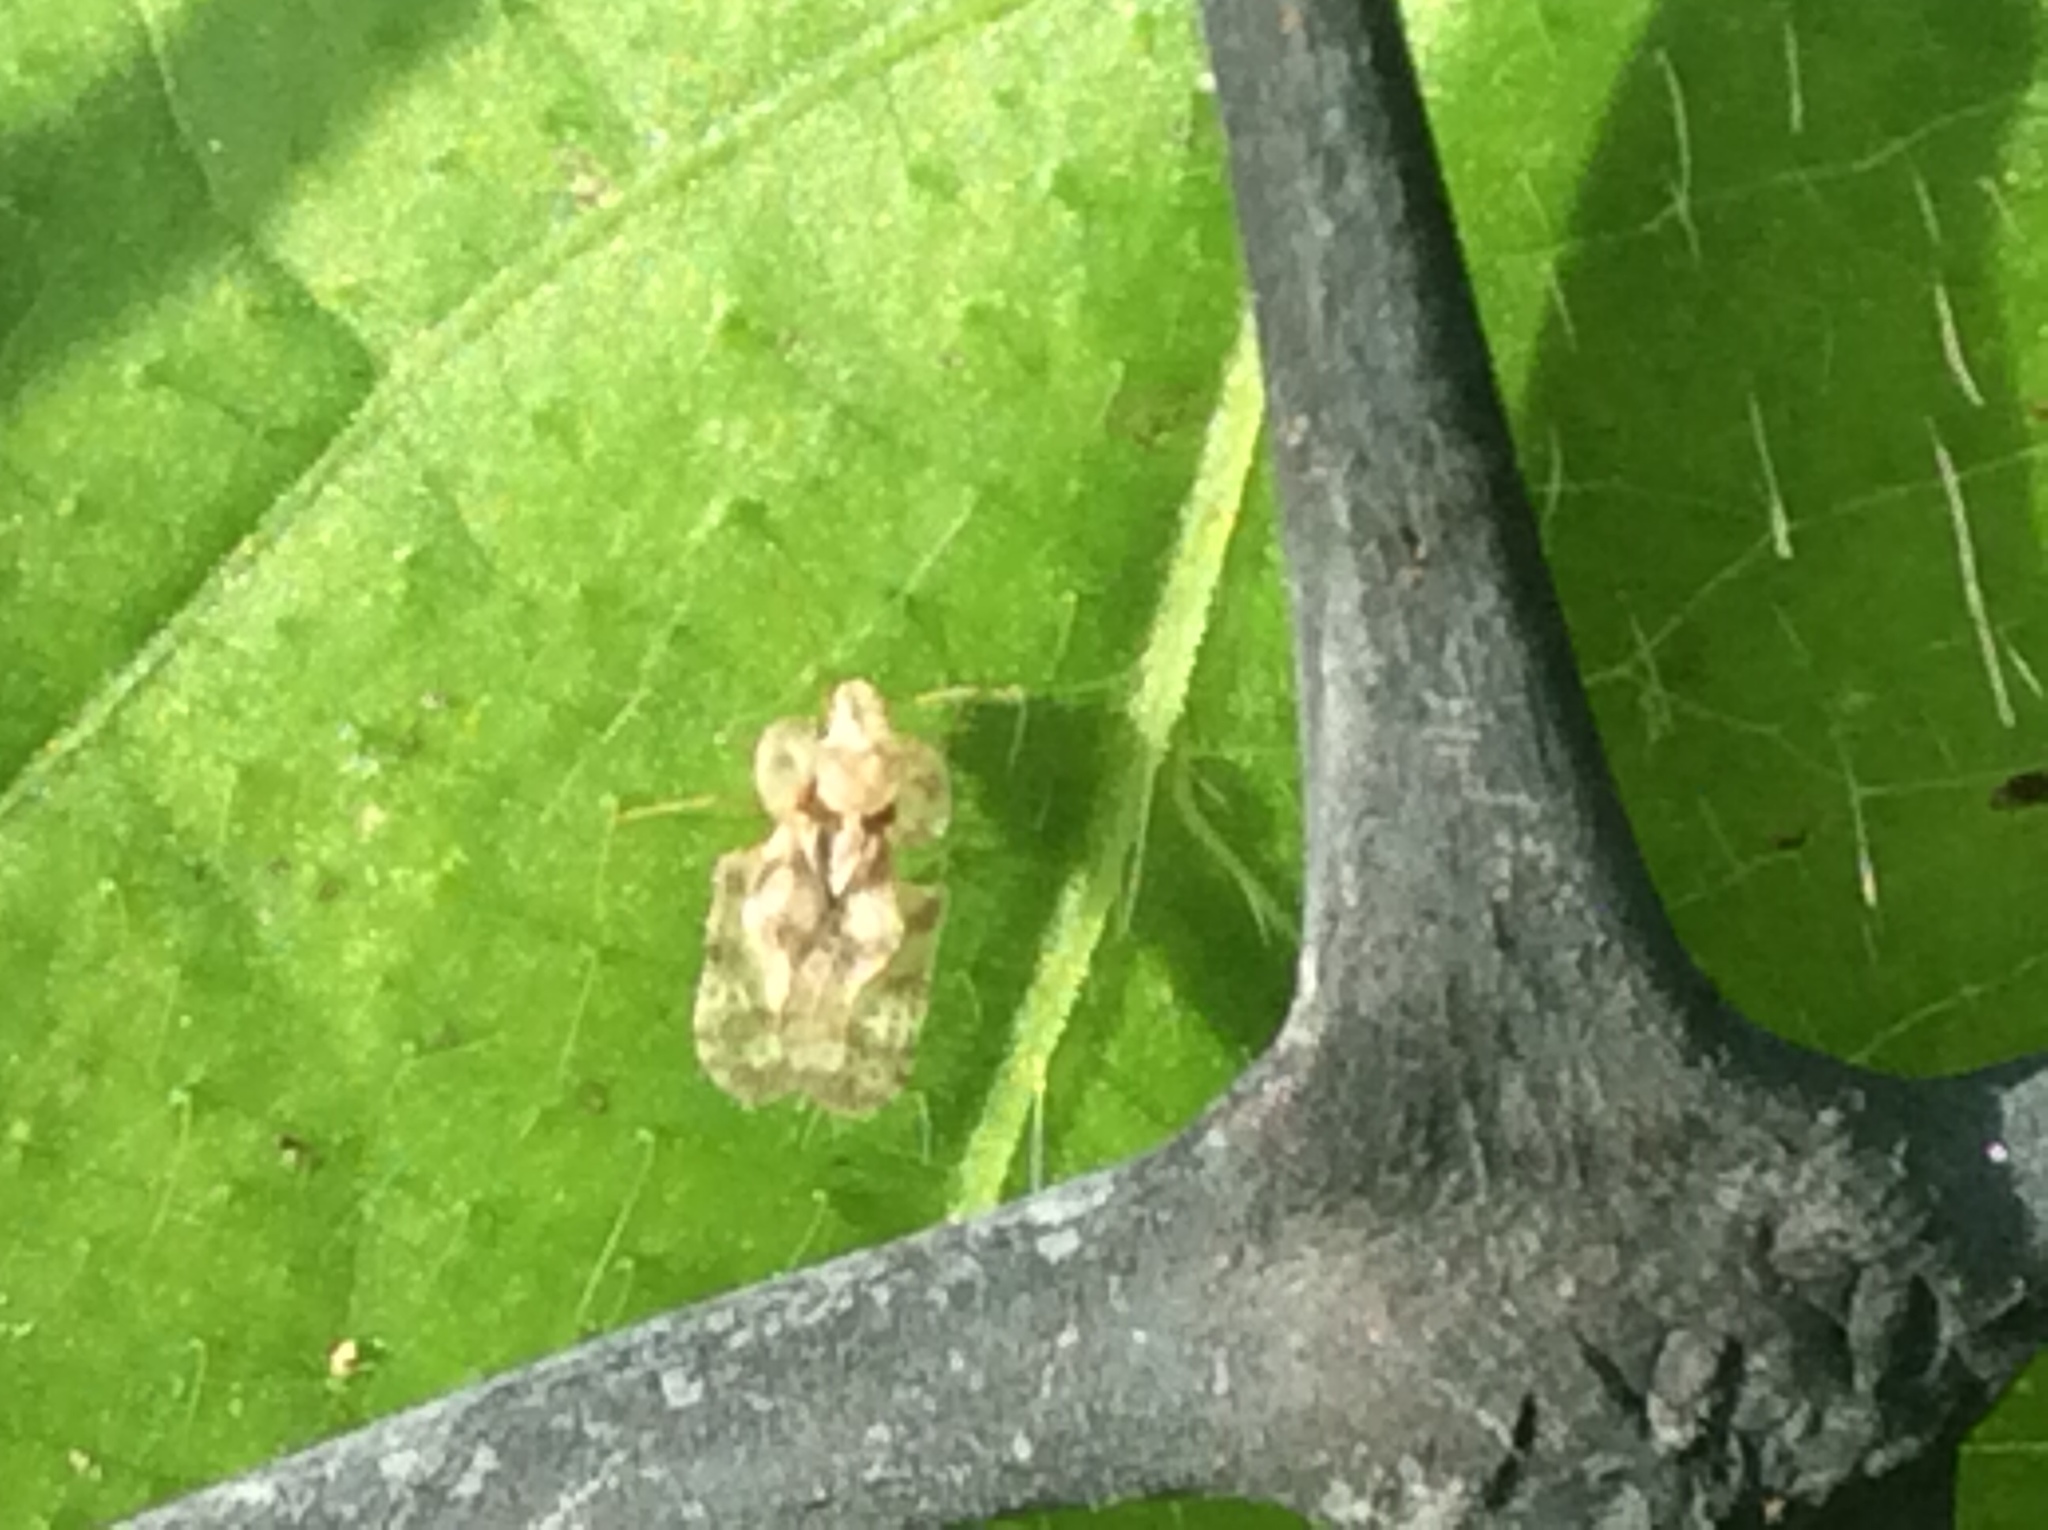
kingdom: Animalia
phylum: Arthropoda
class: Insecta
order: Hemiptera
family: Tingidae
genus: Corythucha
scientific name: Corythucha marmorata
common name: Chrysanthemum lace bug
